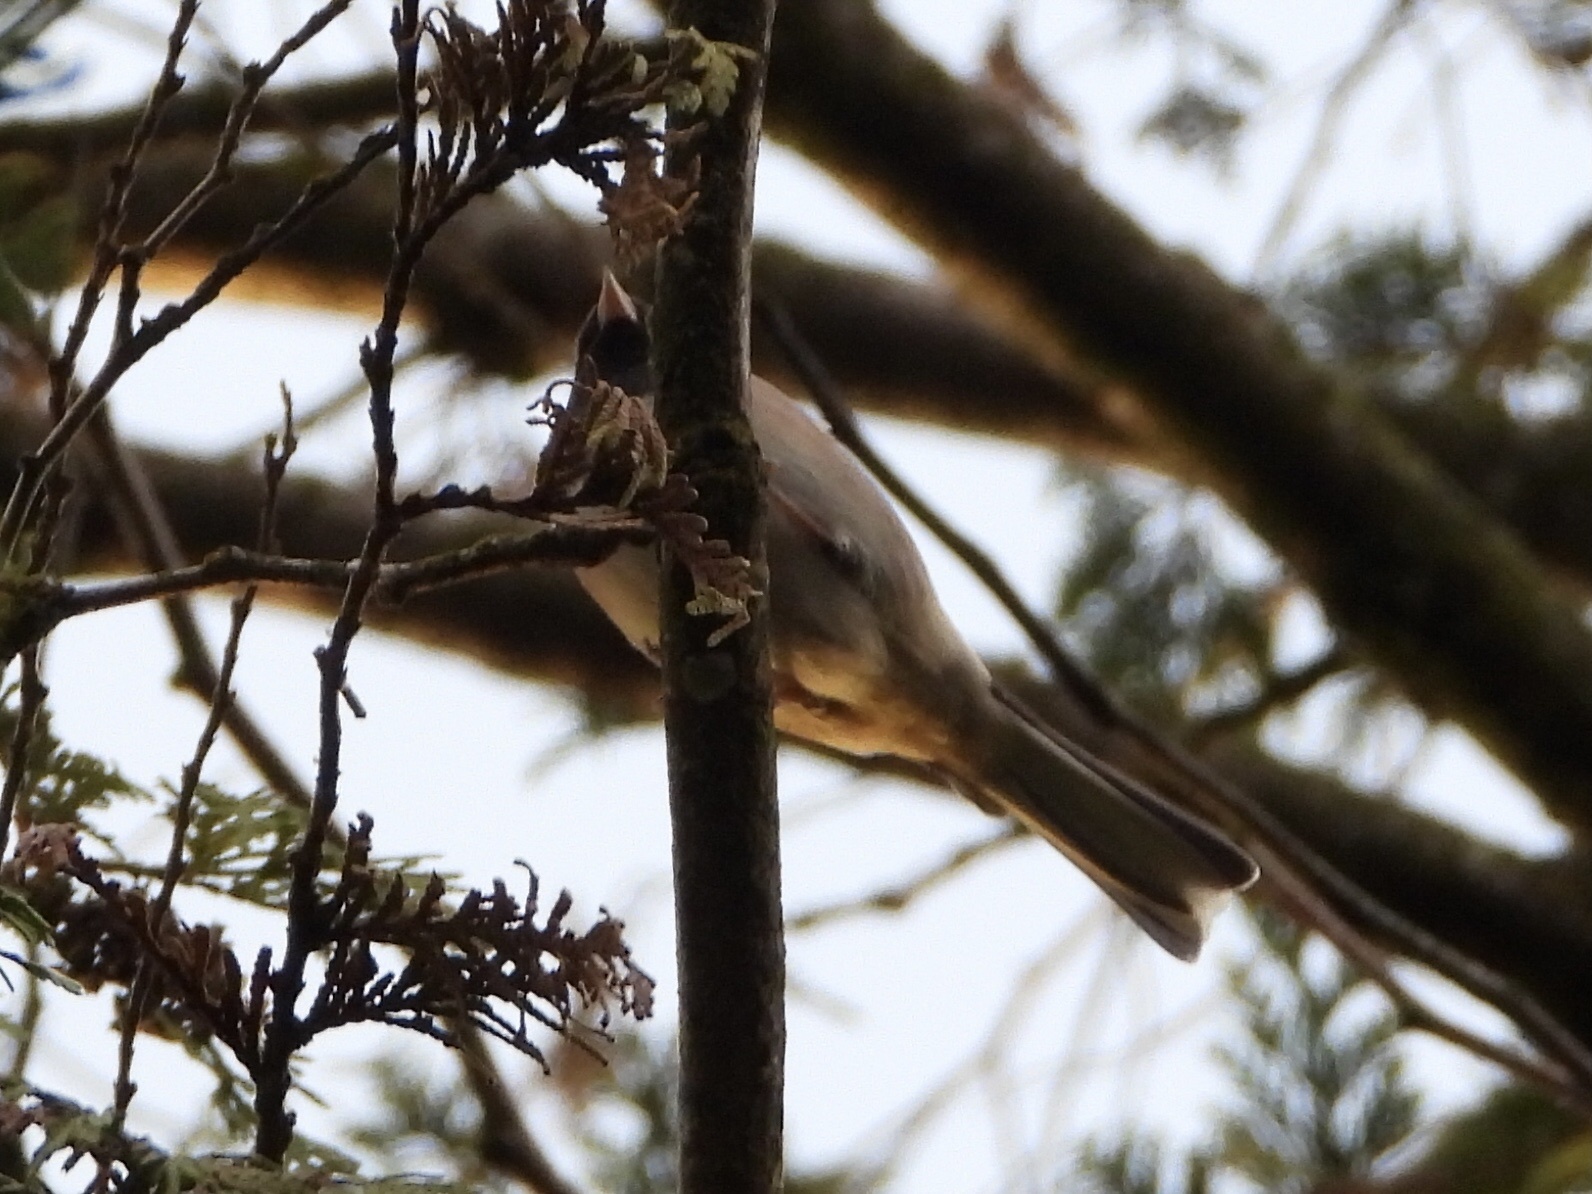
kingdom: Animalia
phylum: Chordata
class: Aves
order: Passeriformes
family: Passerellidae
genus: Junco
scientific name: Junco hyemalis
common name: Dark-eyed junco
